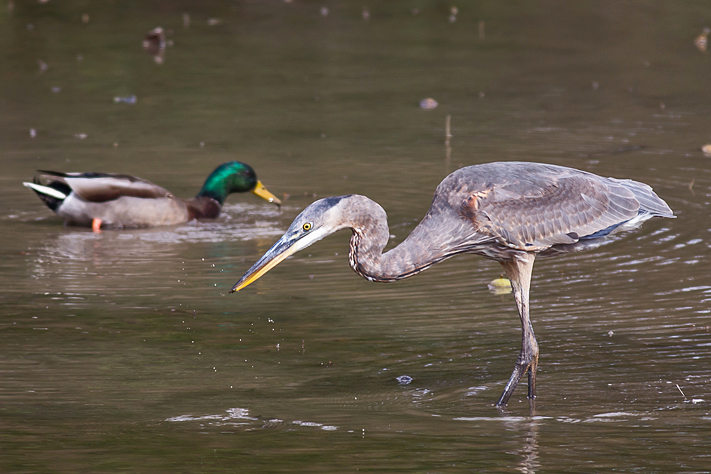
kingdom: Animalia
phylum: Chordata
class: Aves
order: Pelecaniformes
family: Ardeidae
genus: Ardea
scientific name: Ardea herodias
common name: Great blue heron
